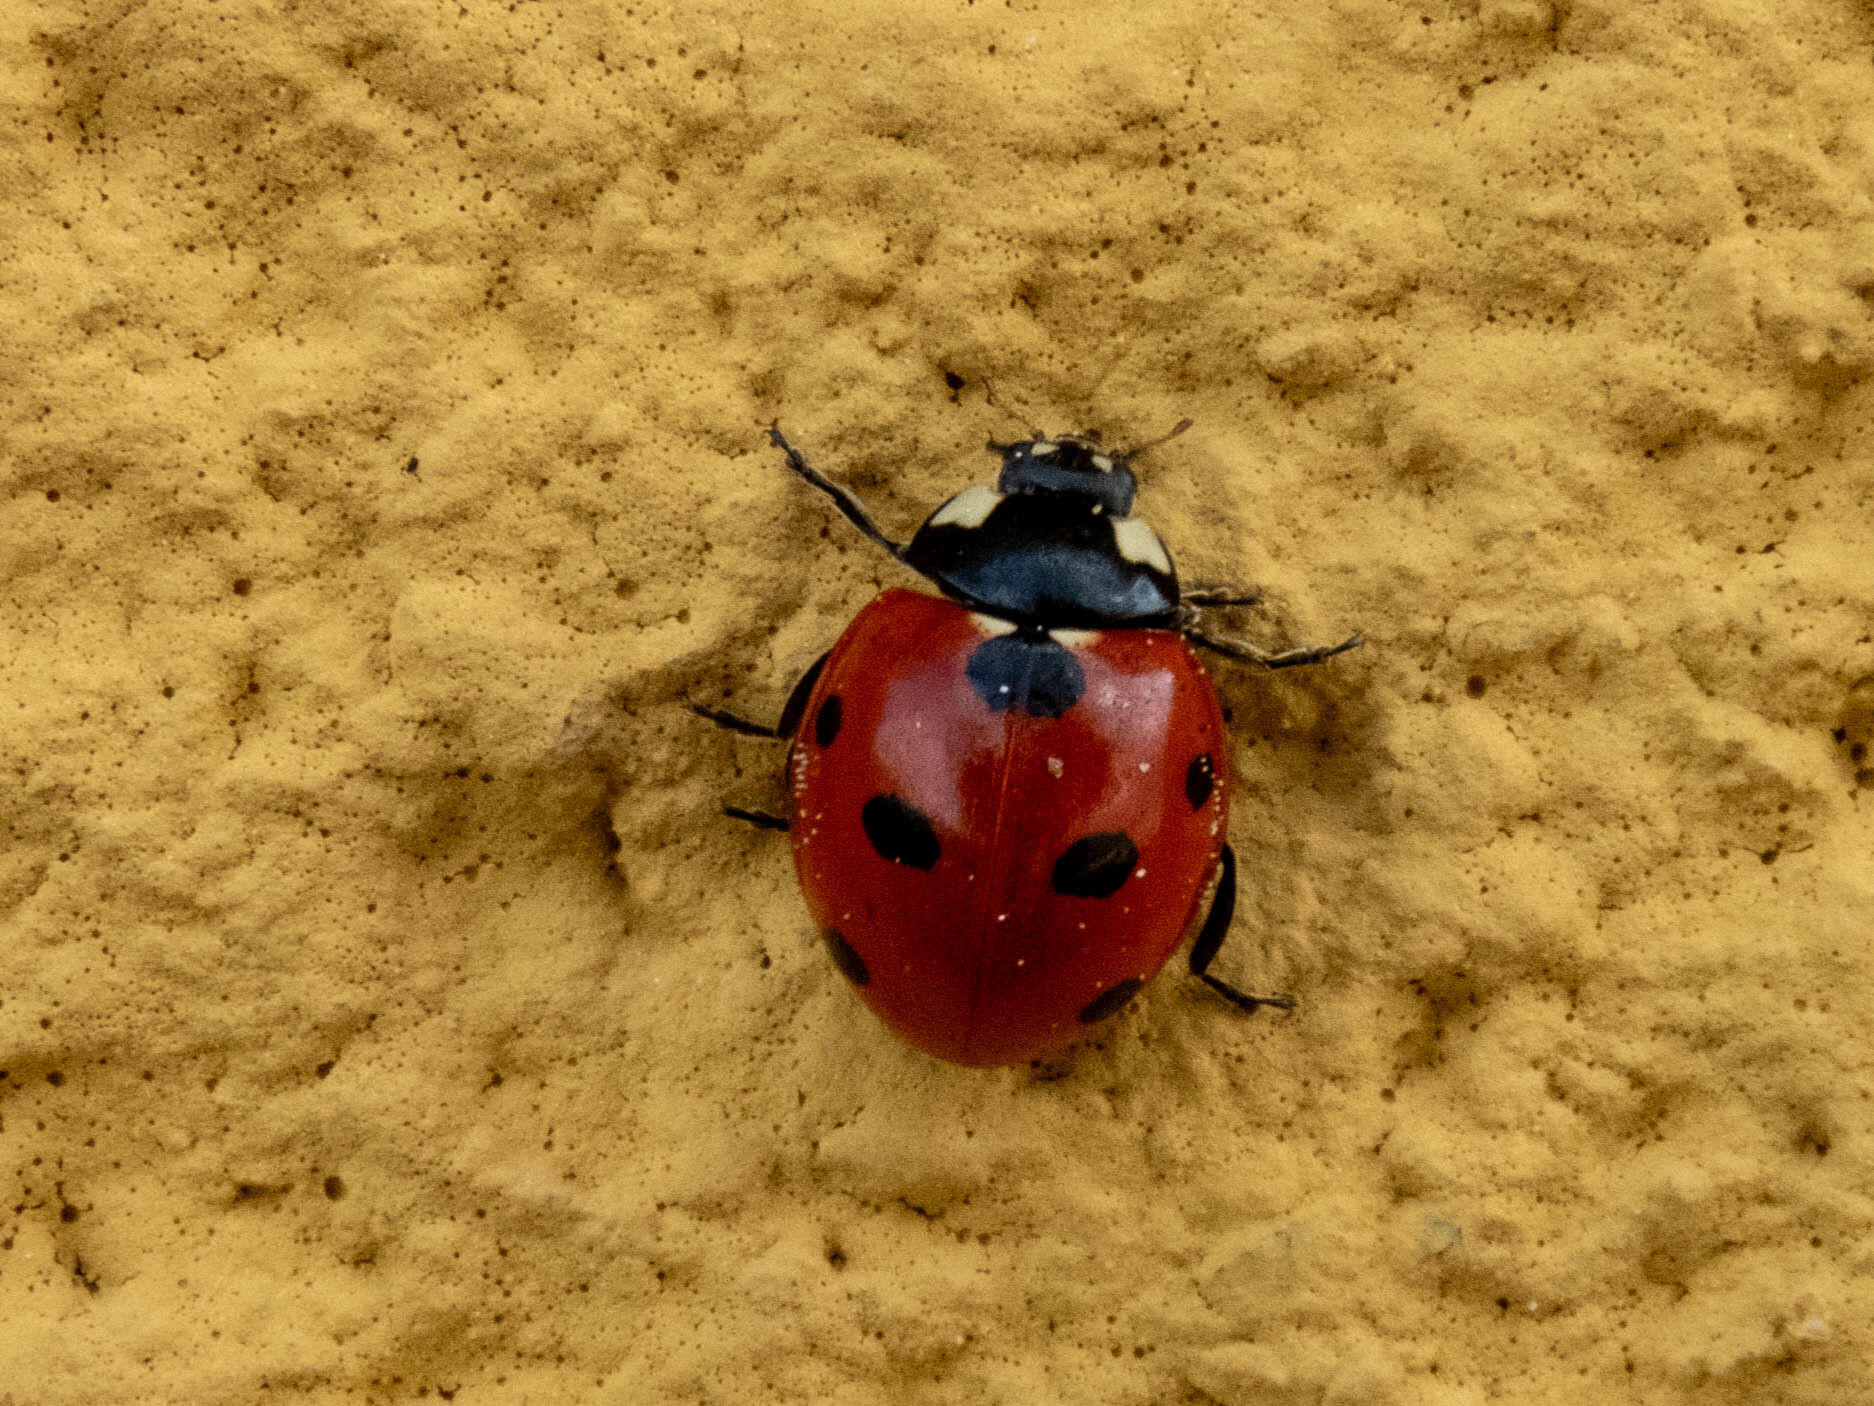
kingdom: Animalia
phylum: Arthropoda
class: Insecta
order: Coleoptera
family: Coccinellidae
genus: Coccinella
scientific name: Coccinella septempunctata
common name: Sevenspotted lady beetle
